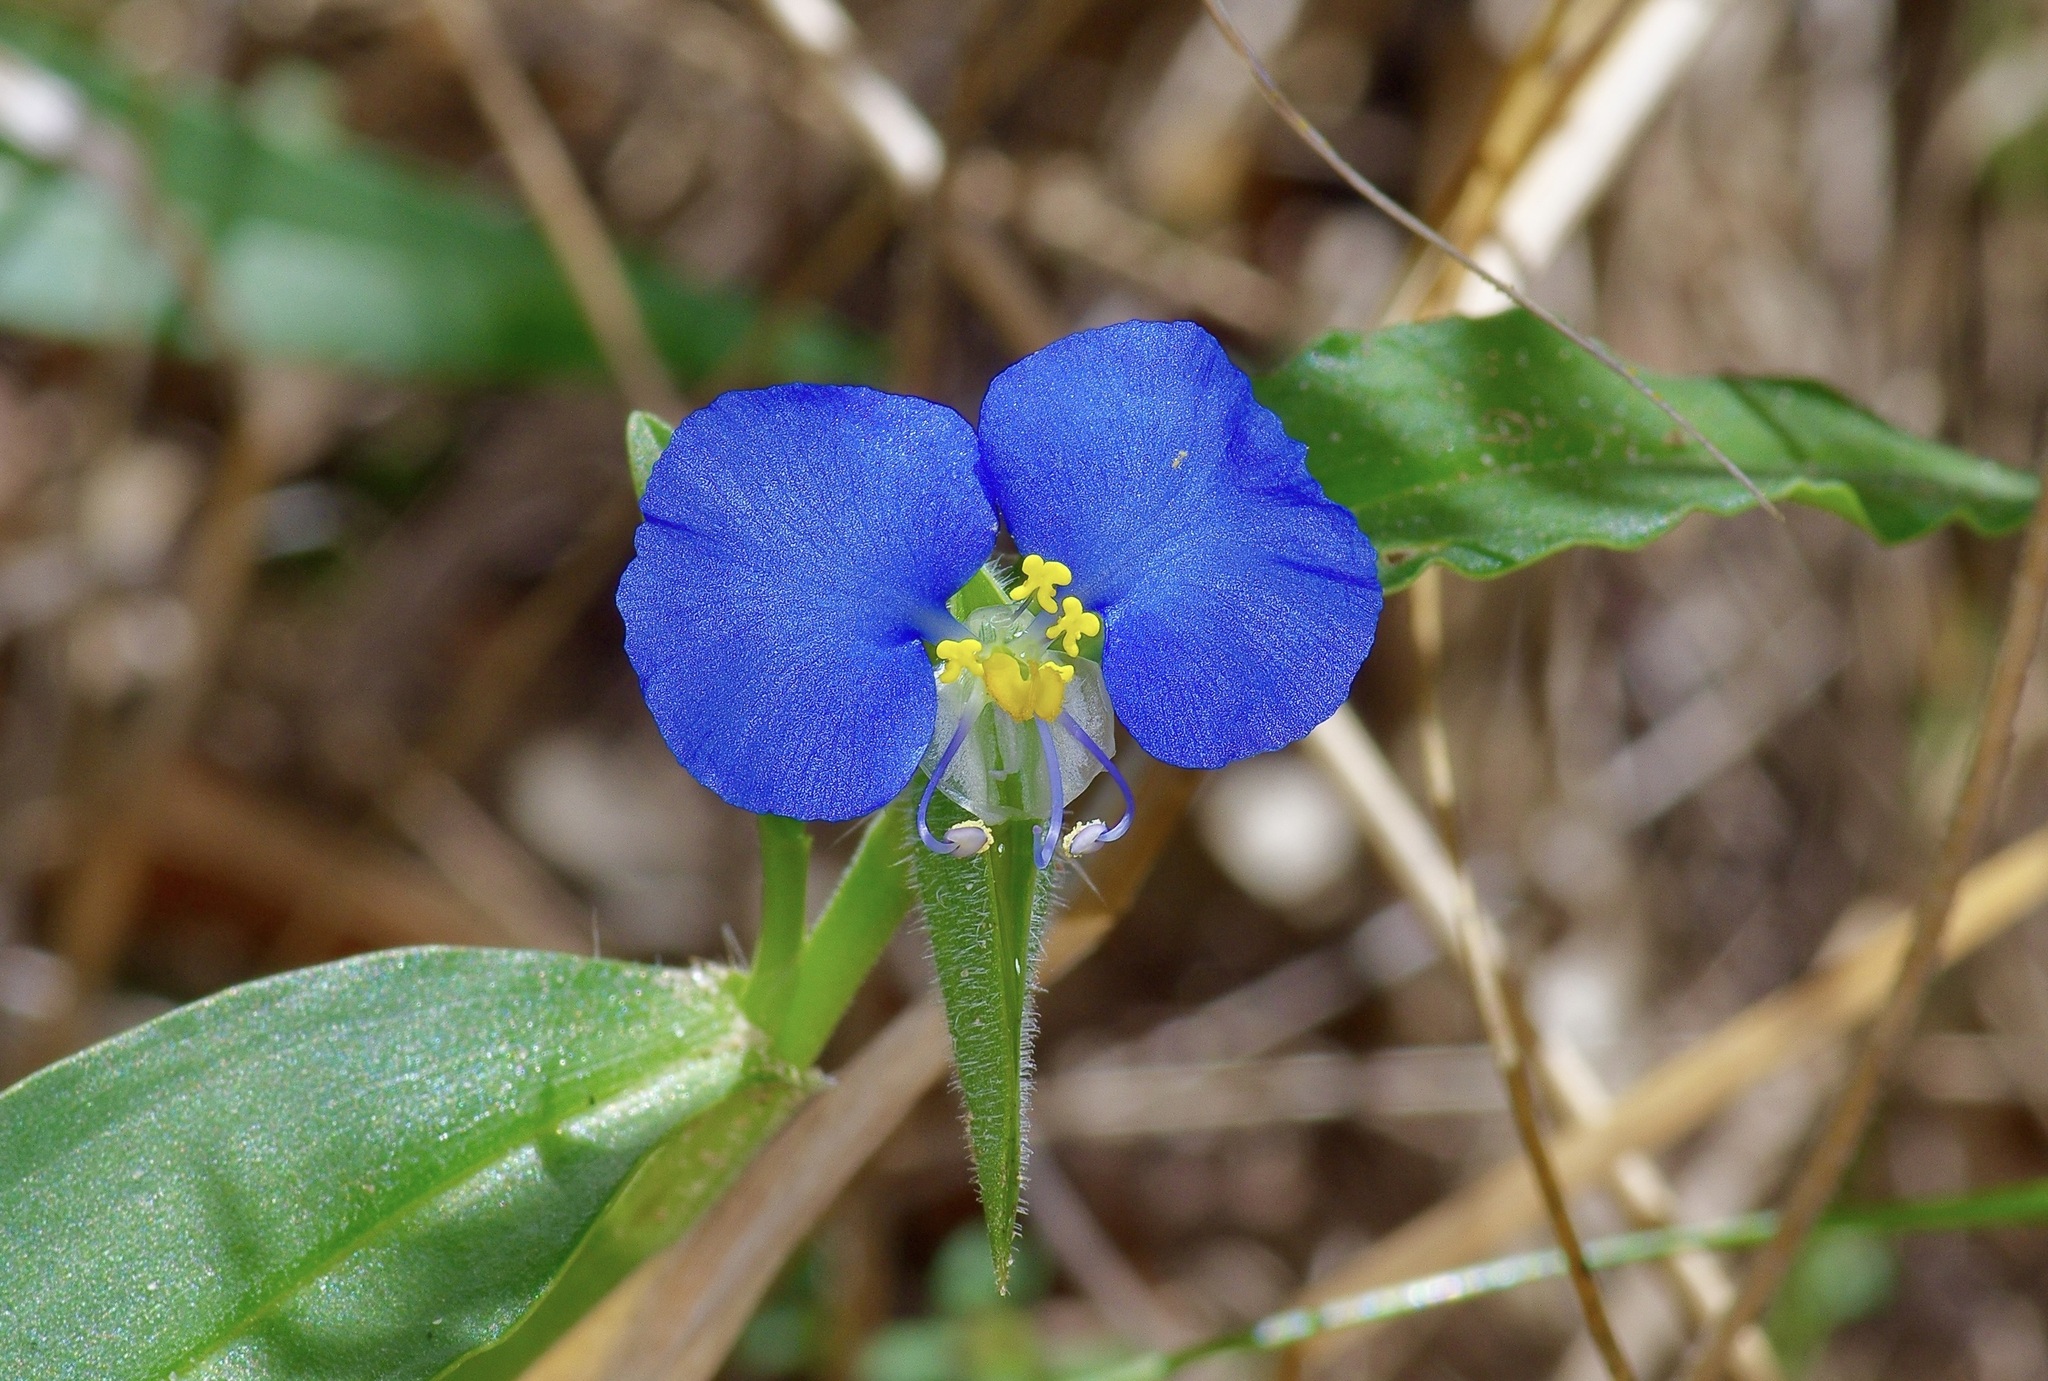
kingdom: Plantae
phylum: Tracheophyta
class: Liliopsida
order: Commelinales
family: Commelinaceae
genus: Commelina
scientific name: Commelina erecta
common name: Blousel blommetjie
